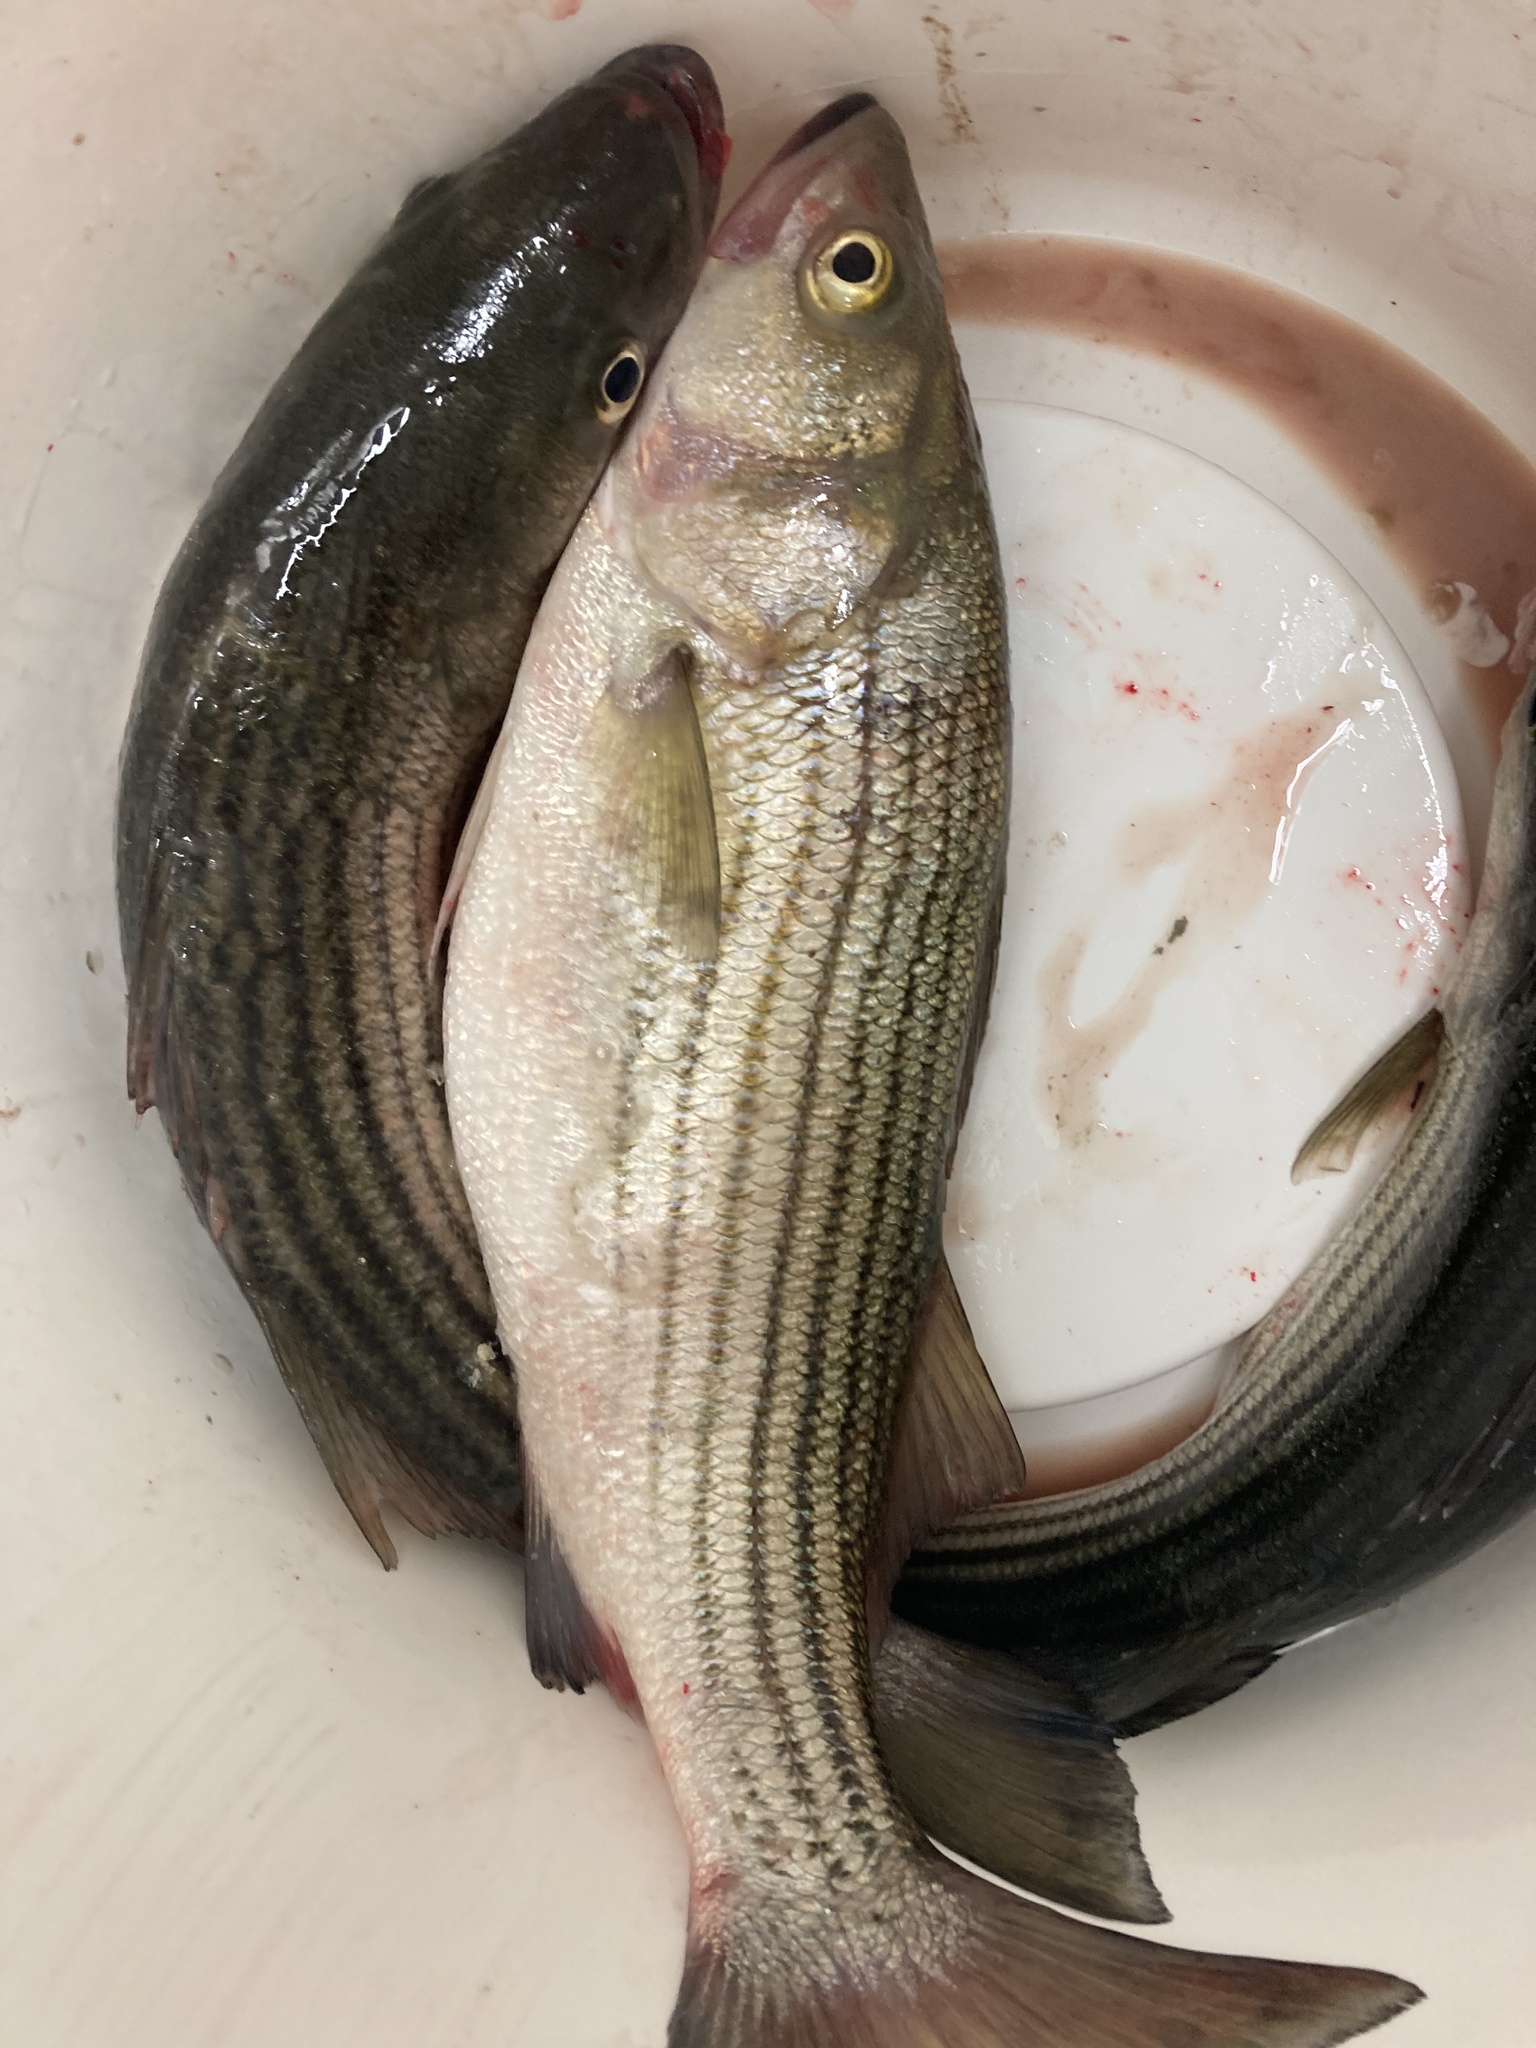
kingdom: Animalia
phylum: Chordata
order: Perciformes
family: Moronidae
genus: Morone
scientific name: Morone saxatilis
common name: Striped bass
